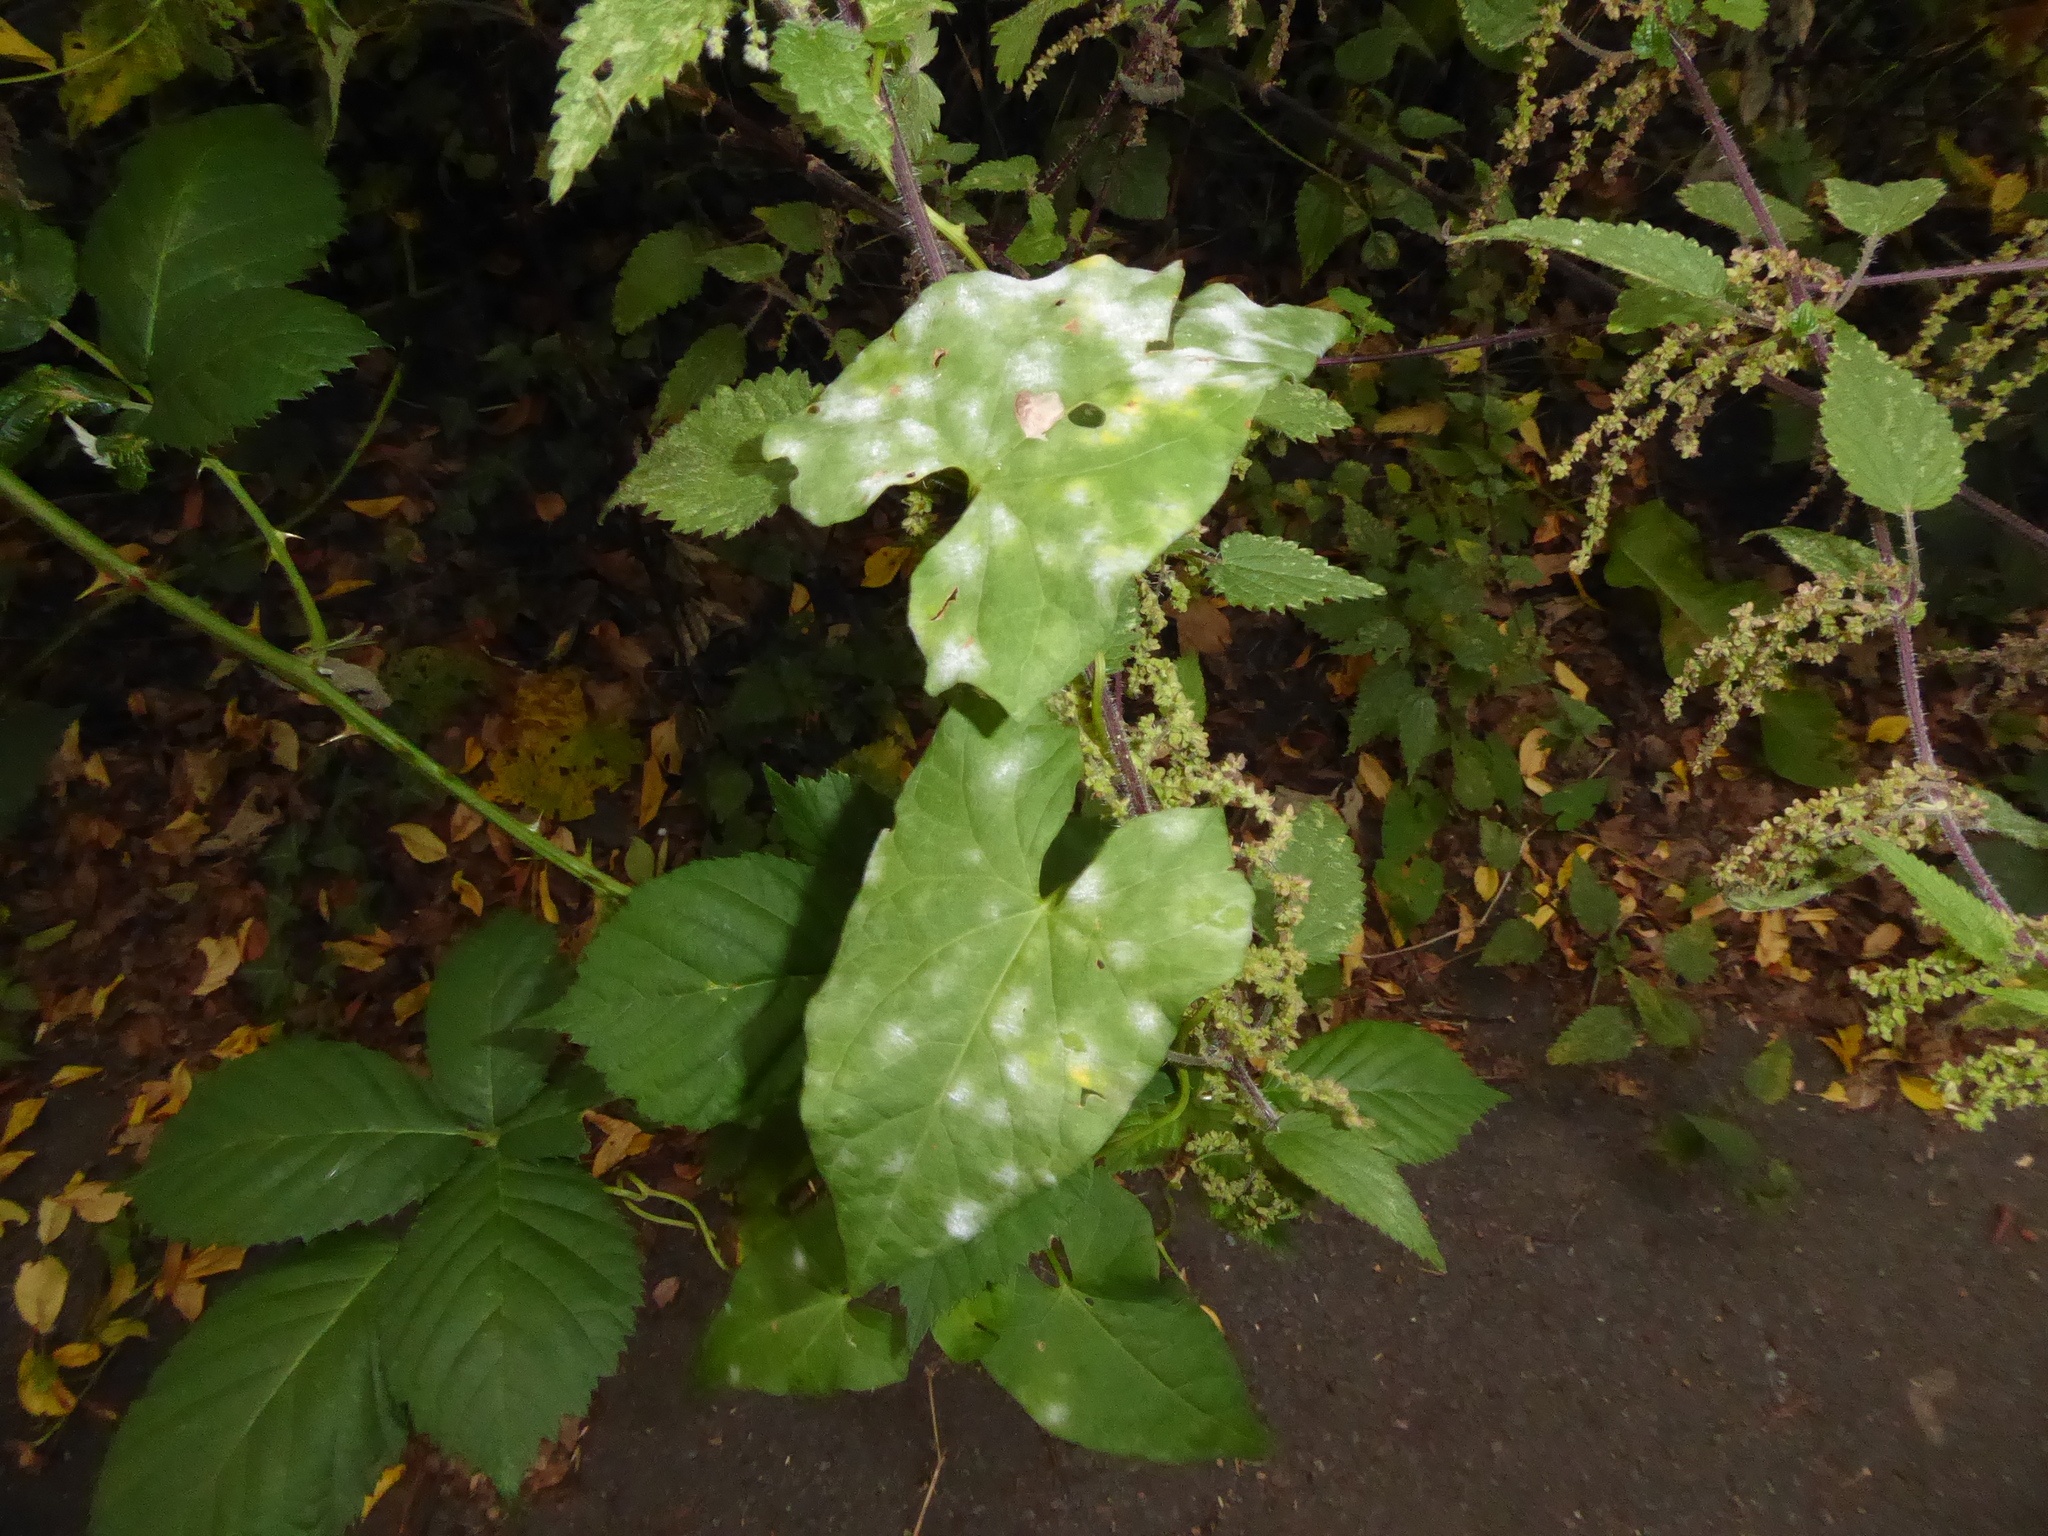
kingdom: Fungi
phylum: Ascomycota
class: Leotiomycetes
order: Helotiales
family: Erysiphaceae
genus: Erysiphe
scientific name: Erysiphe convolvuli
